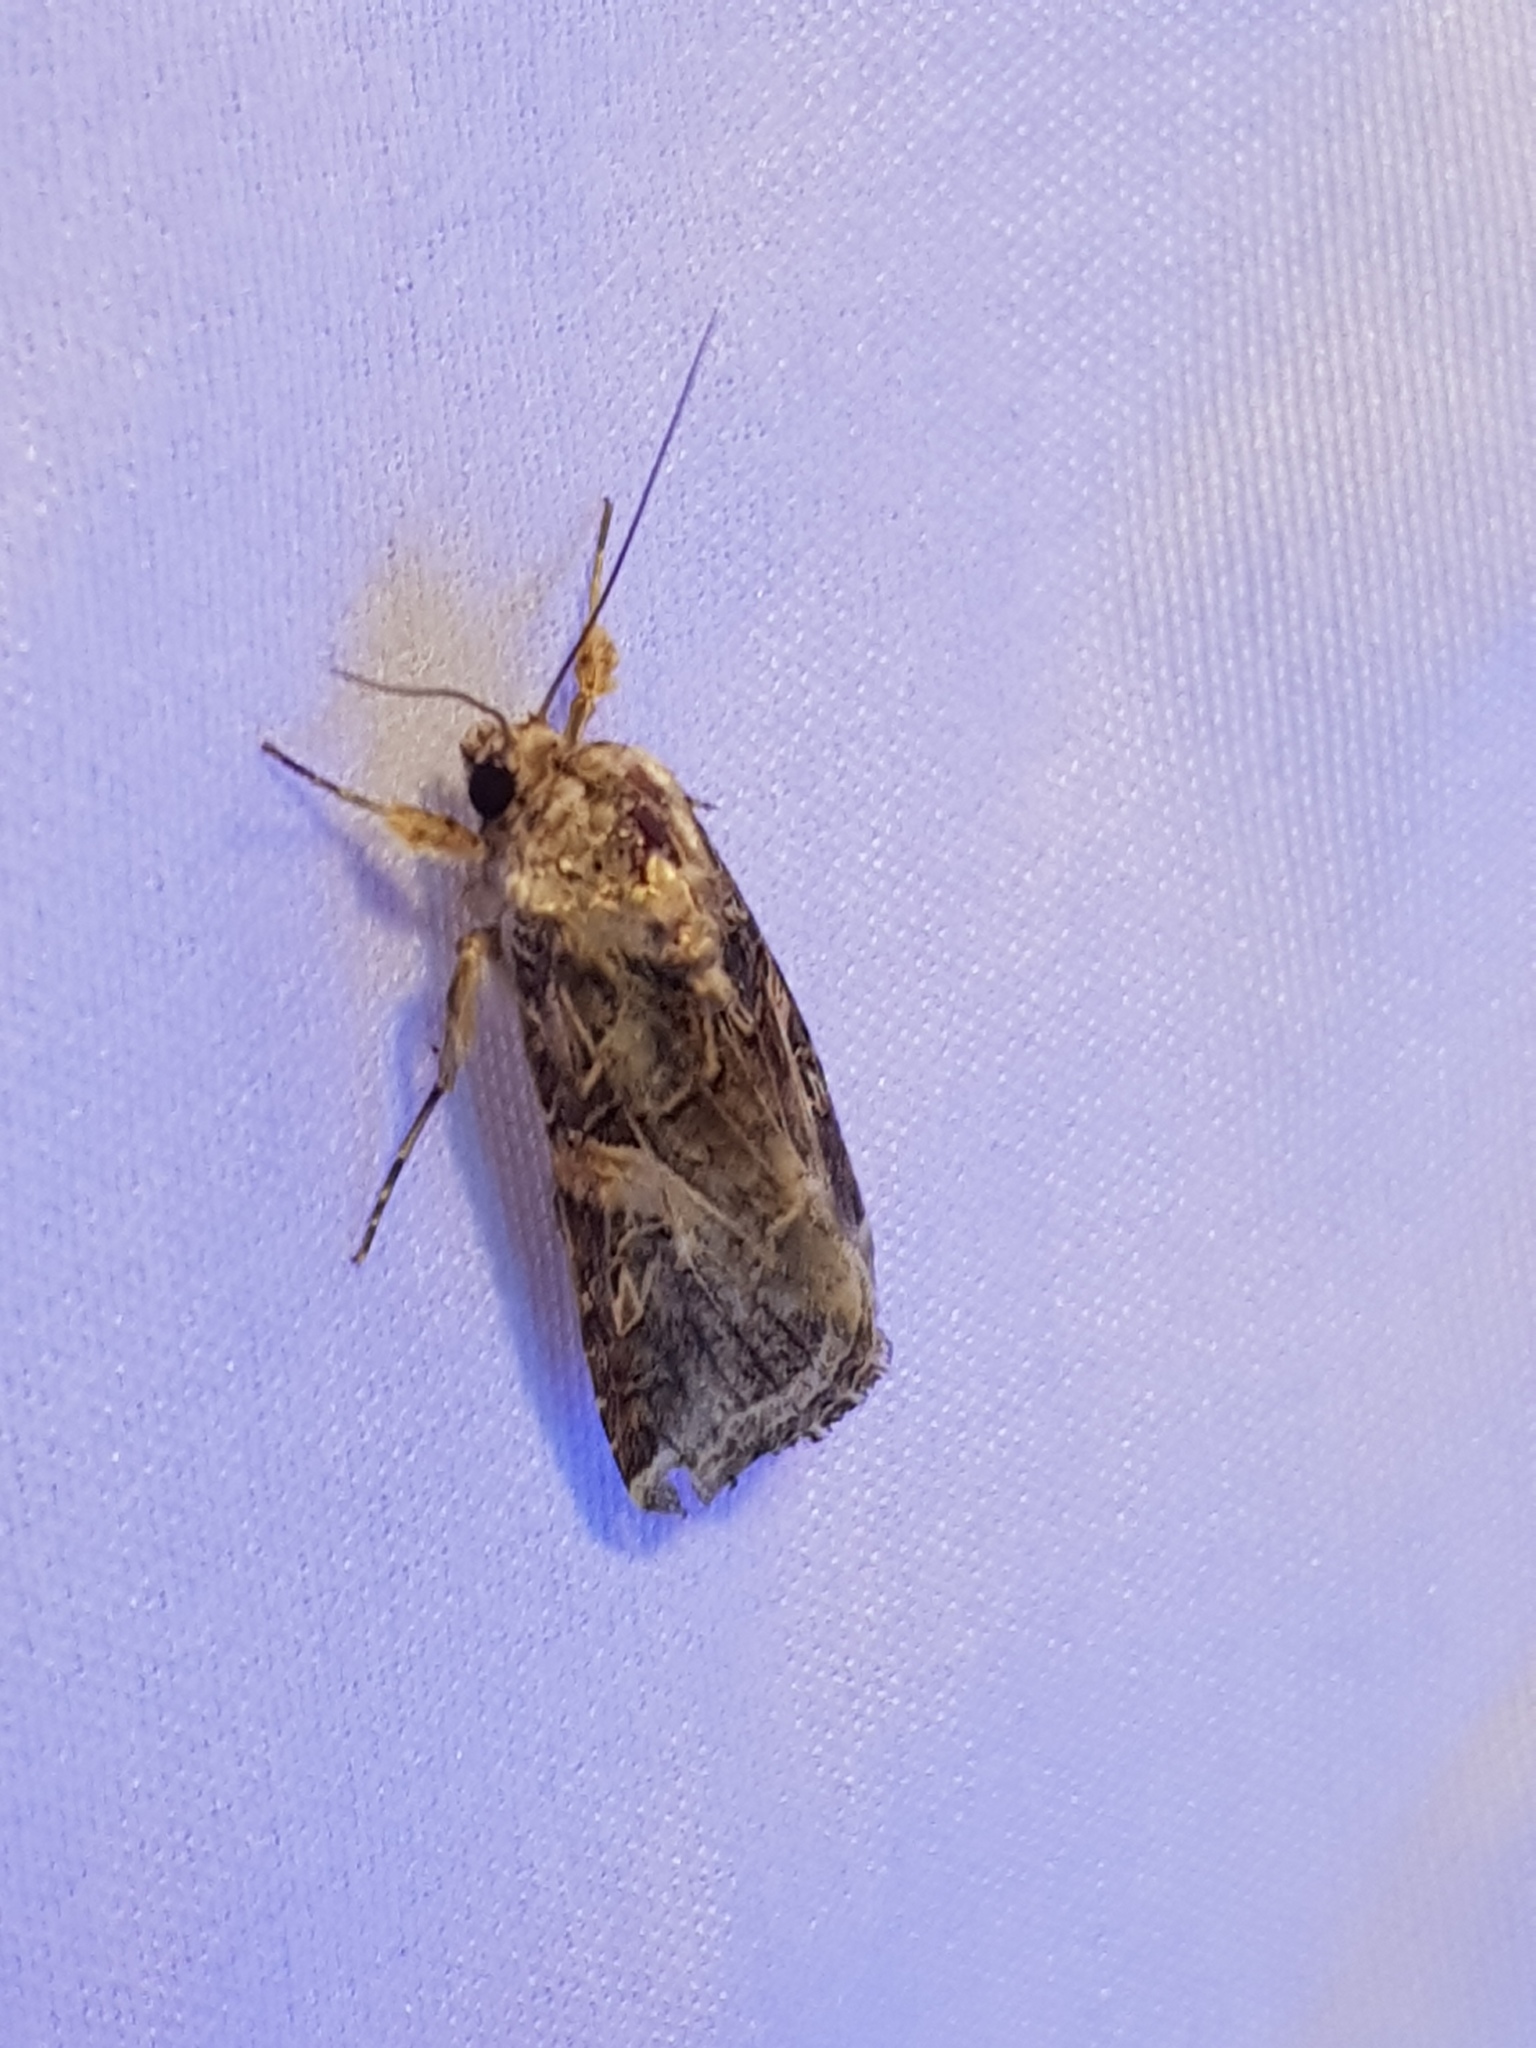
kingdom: Animalia
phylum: Arthropoda
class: Insecta
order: Lepidoptera
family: Noctuidae
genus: Spodoptera
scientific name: Spodoptera ornithogalli
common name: Yellow-striped armyworm
